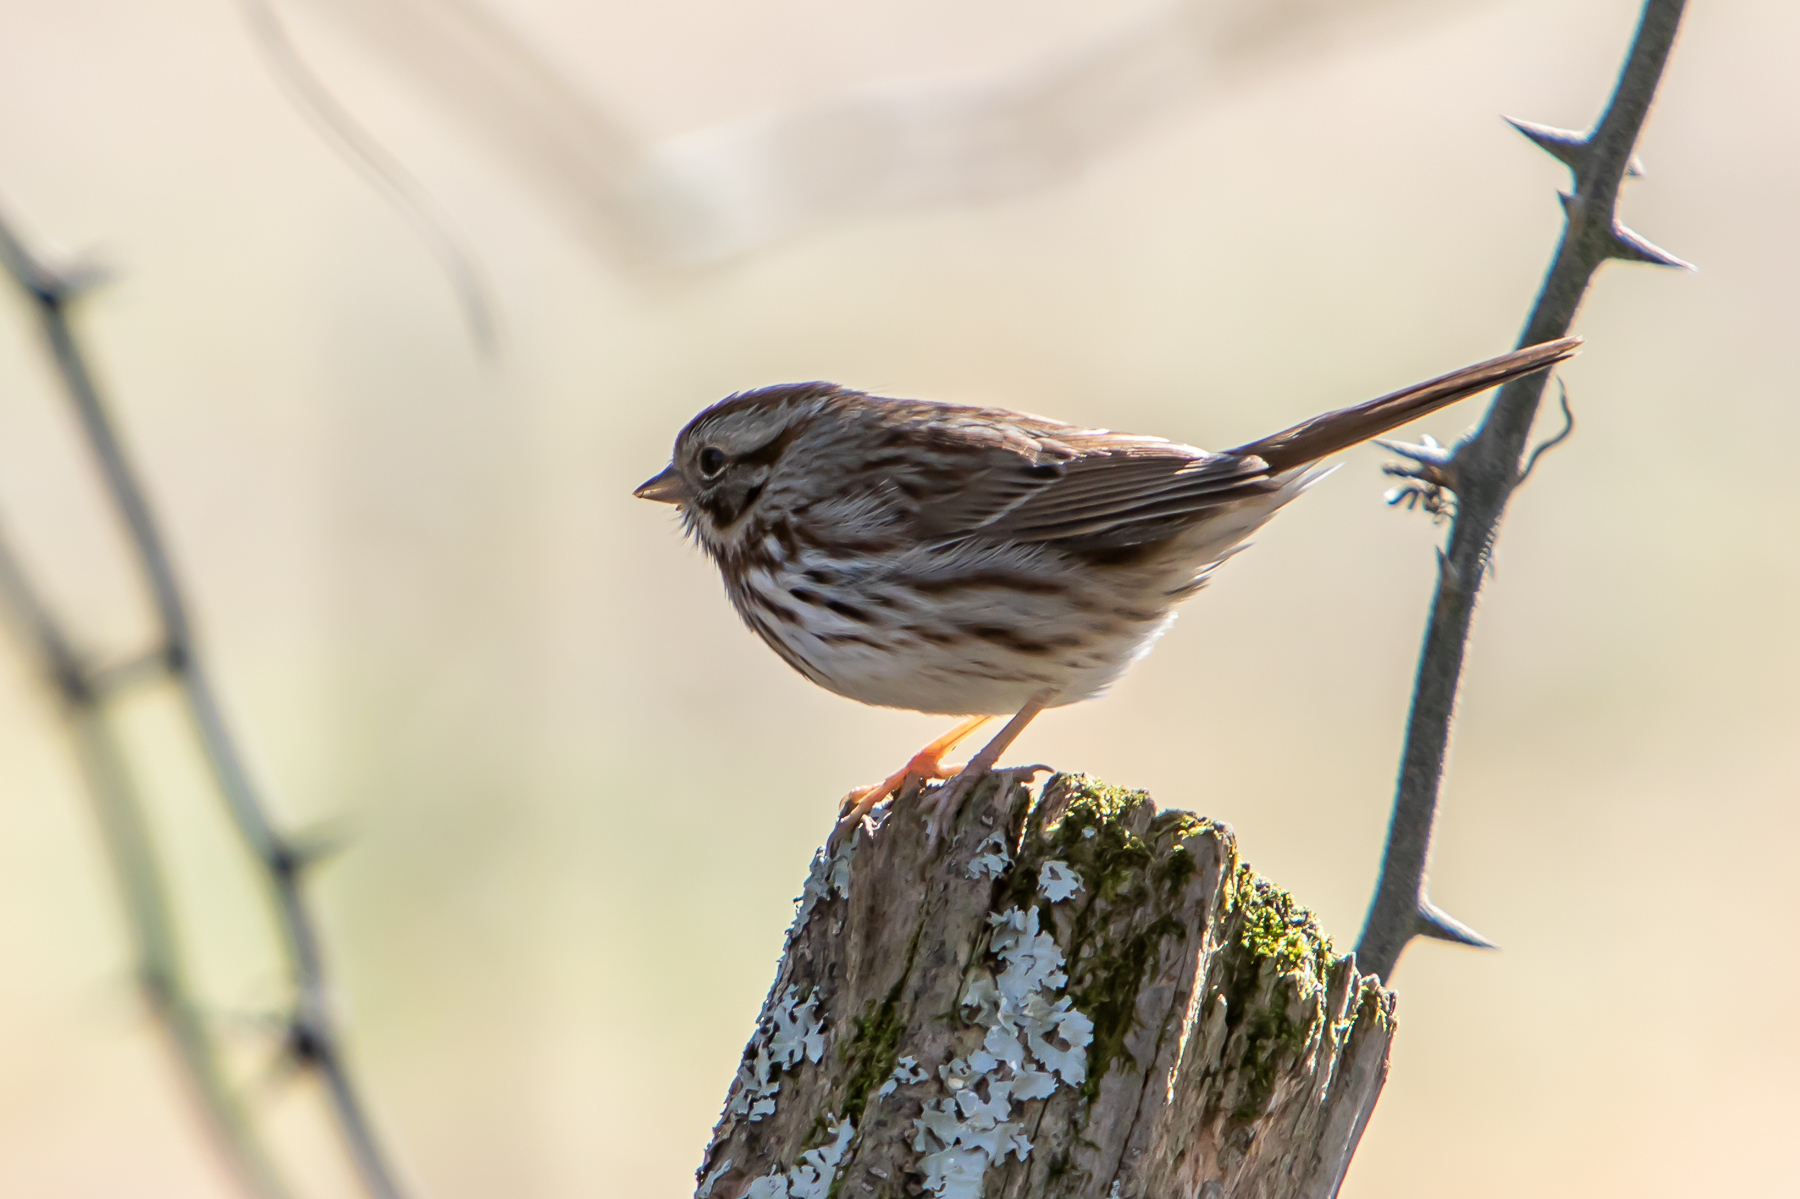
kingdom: Animalia
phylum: Chordata
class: Aves
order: Passeriformes
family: Passerellidae
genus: Melospiza
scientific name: Melospiza melodia
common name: Song sparrow
